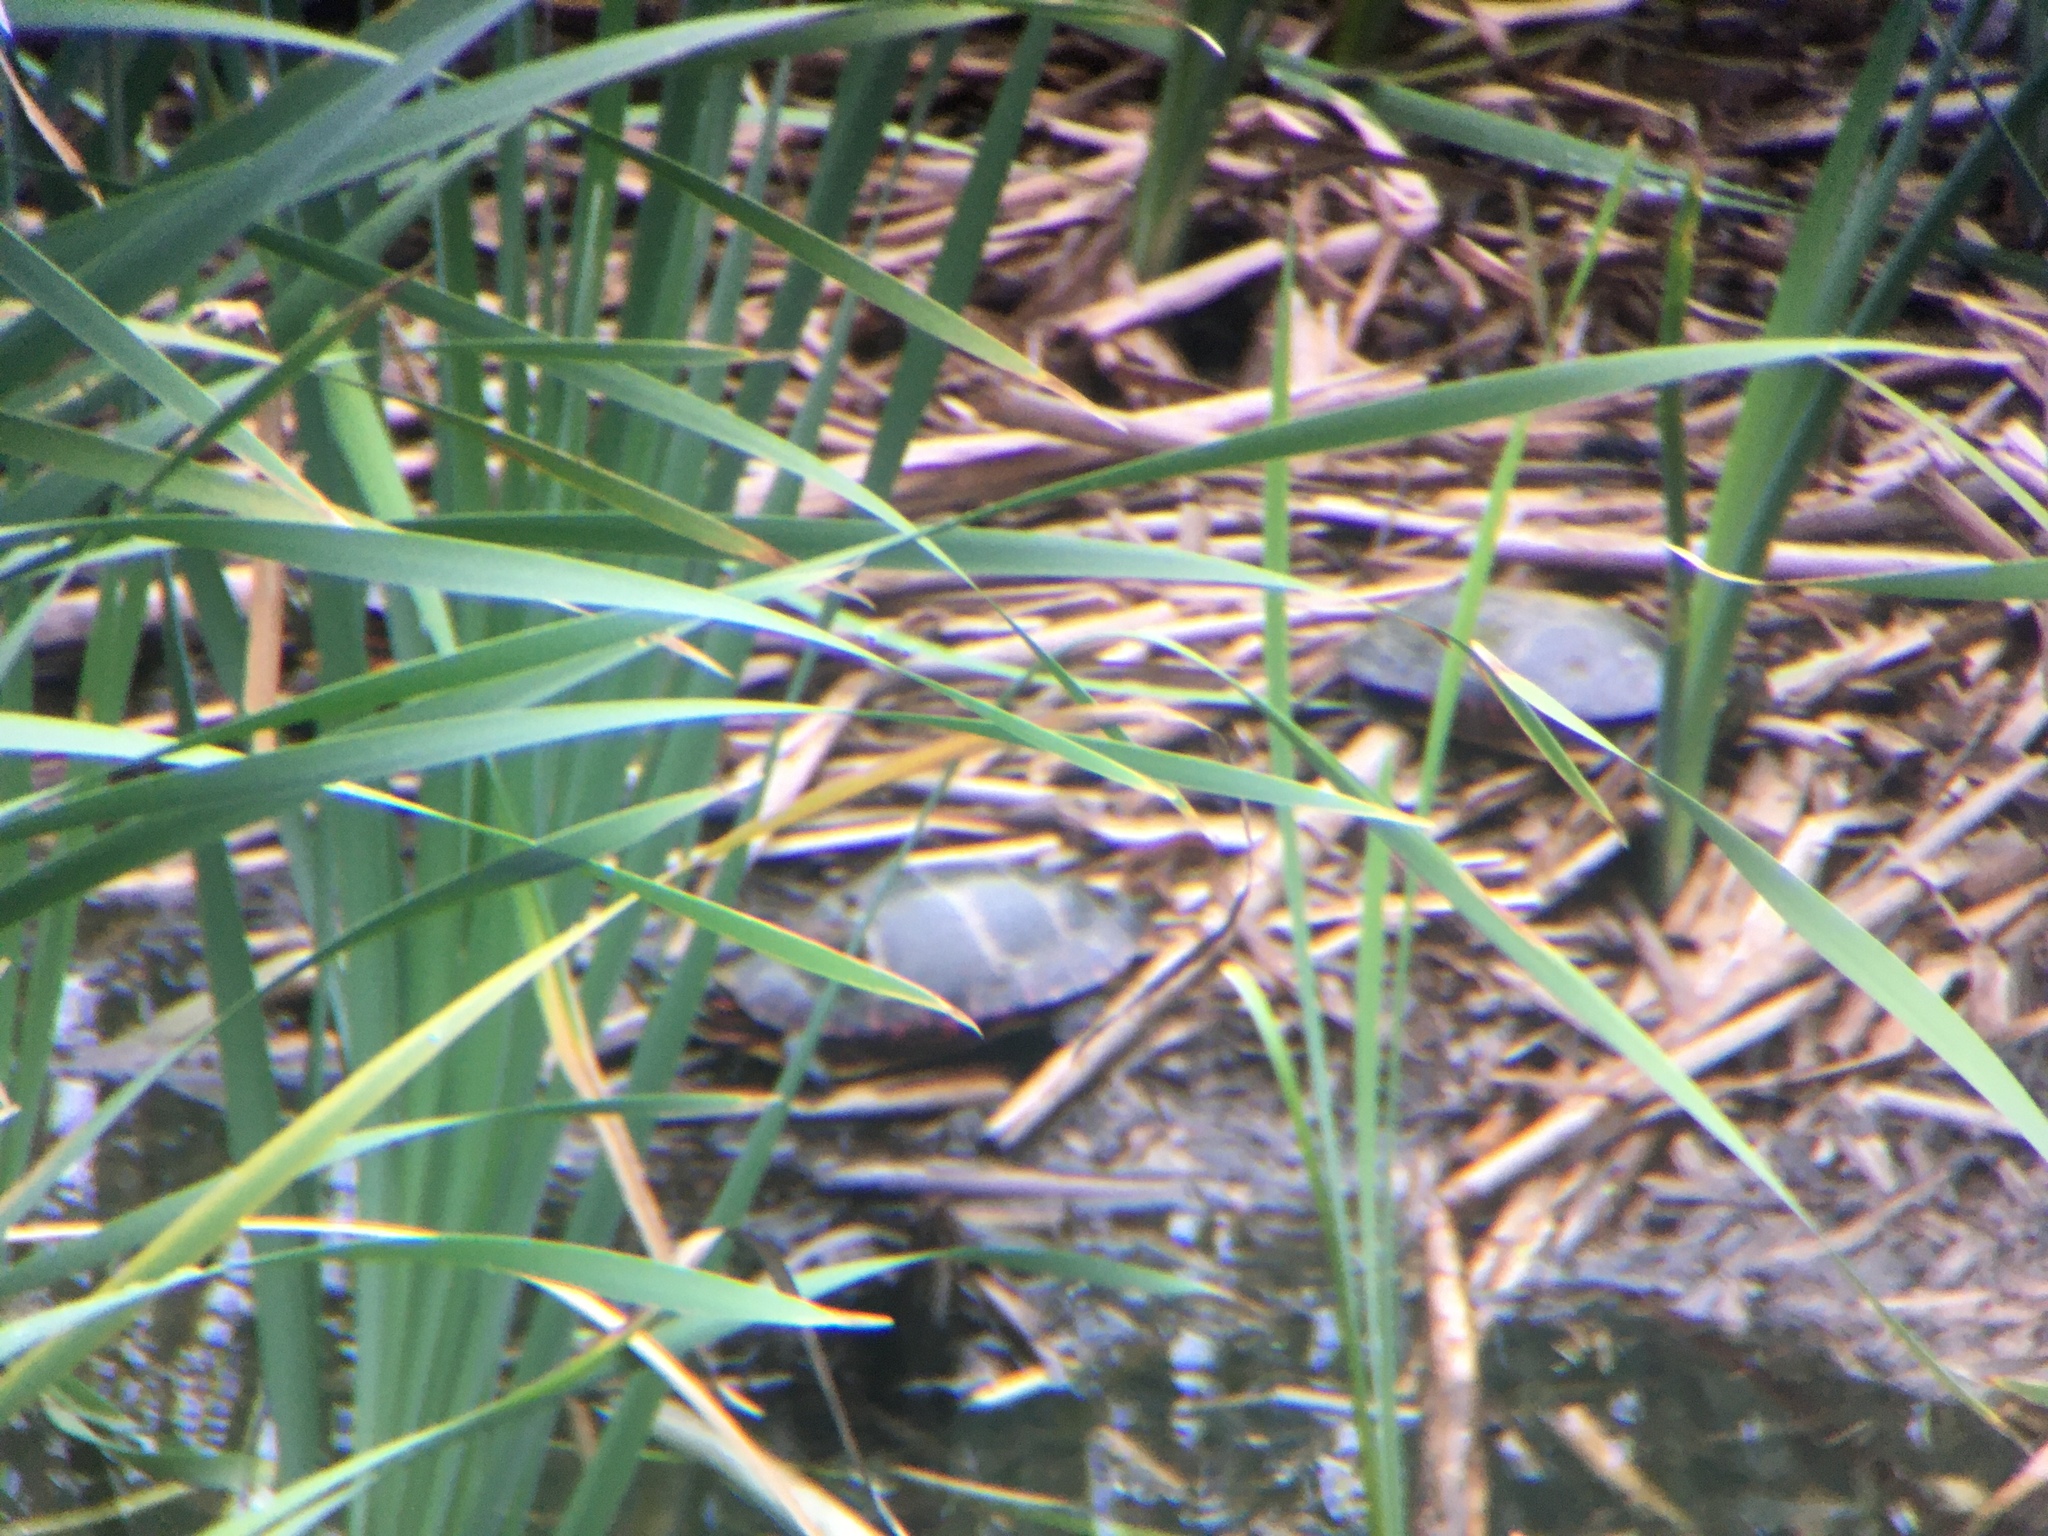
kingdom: Animalia
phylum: Chordata
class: Testudines
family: Emydidae
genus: Chrysemys
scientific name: Chrysemys picta
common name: Painted turtle
